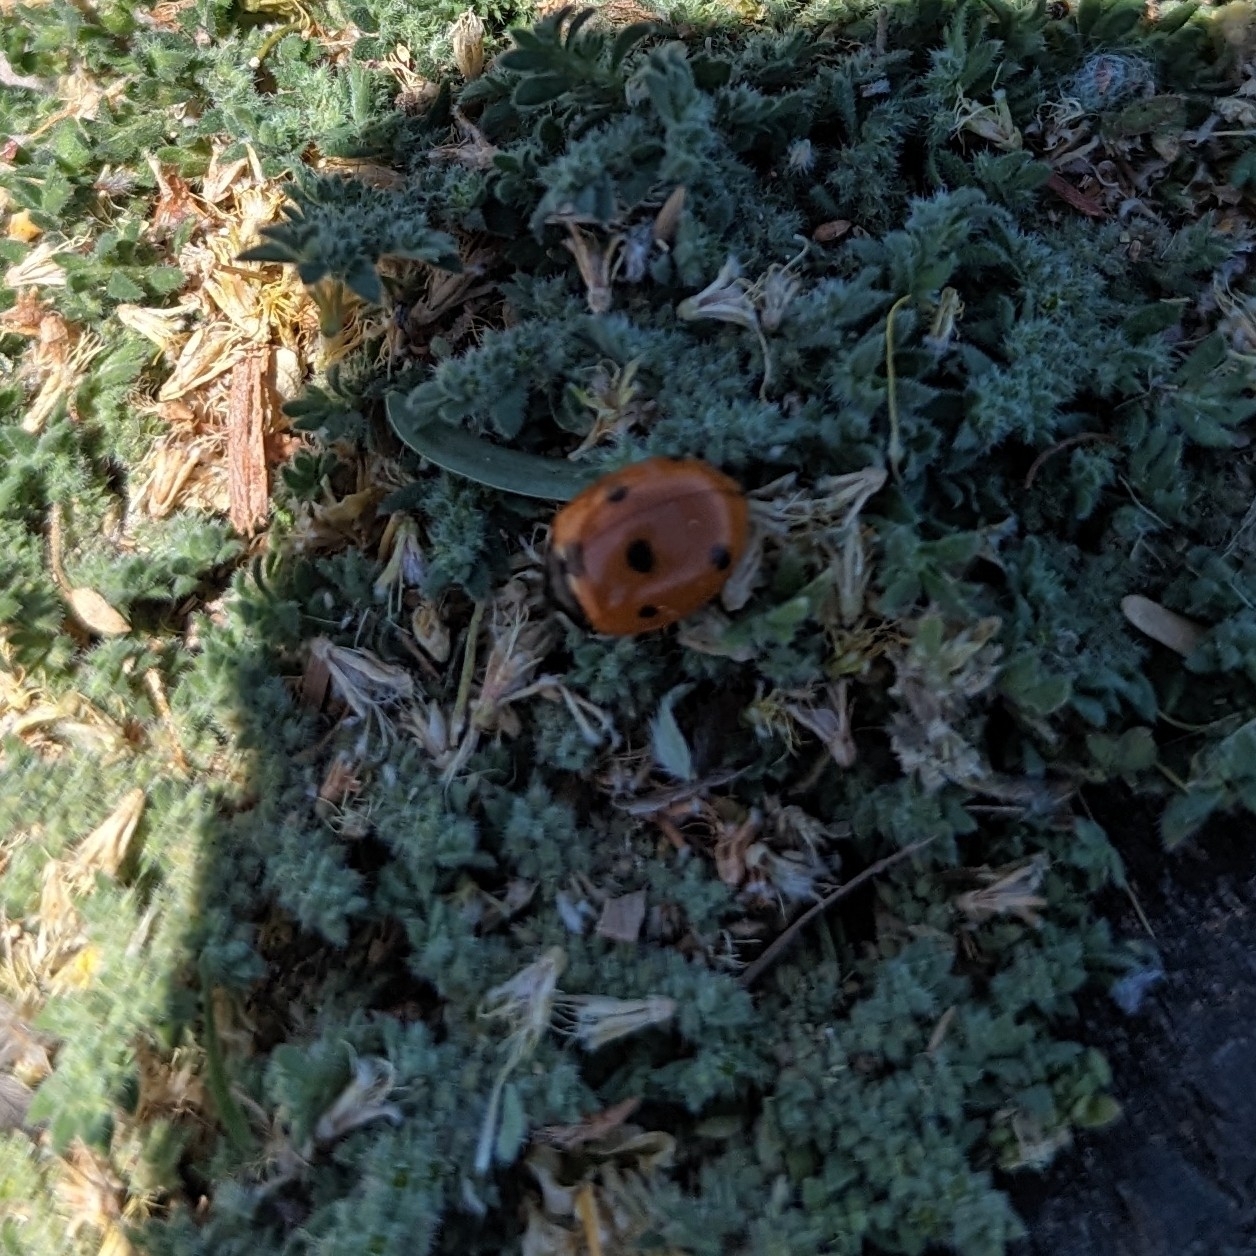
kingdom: Animalia
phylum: Arthropoda
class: Insecta
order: Coleoptera
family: Coccinellidae
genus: Coccinella
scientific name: Coccinella septempunctata
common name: Sevenspotted lady beetle
